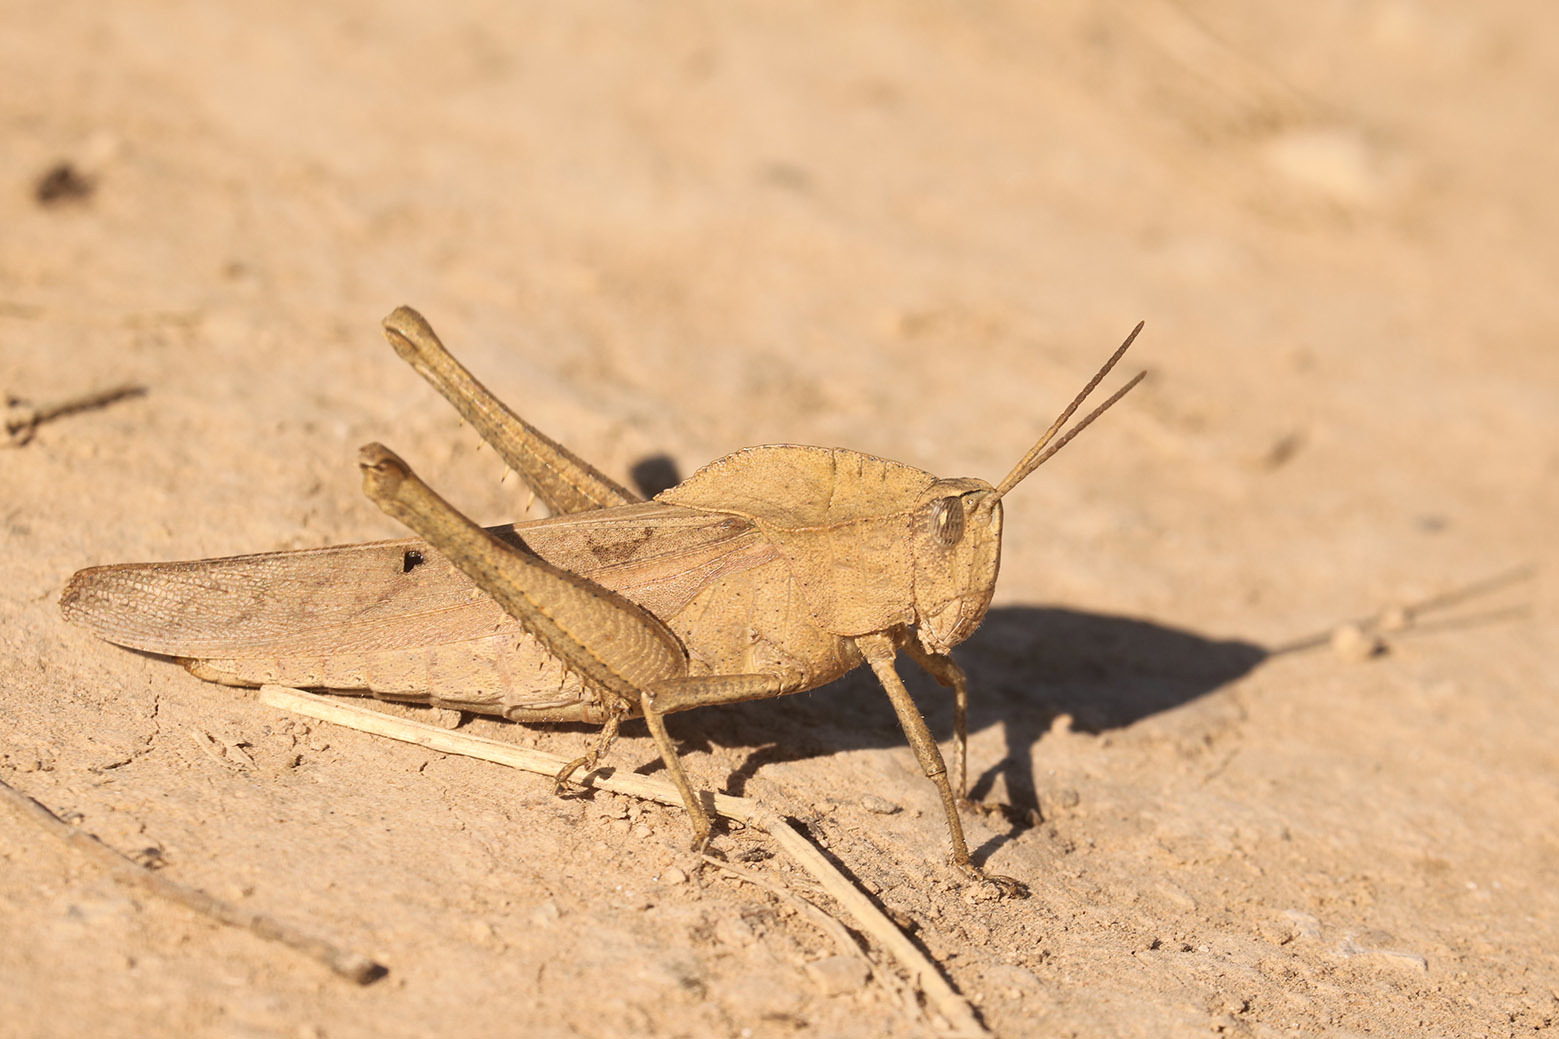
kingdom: Animalia
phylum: Arthropoda
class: Insecta
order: Orthoptera
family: Romaleidae
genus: Xyleus
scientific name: Xyleus discoideus
